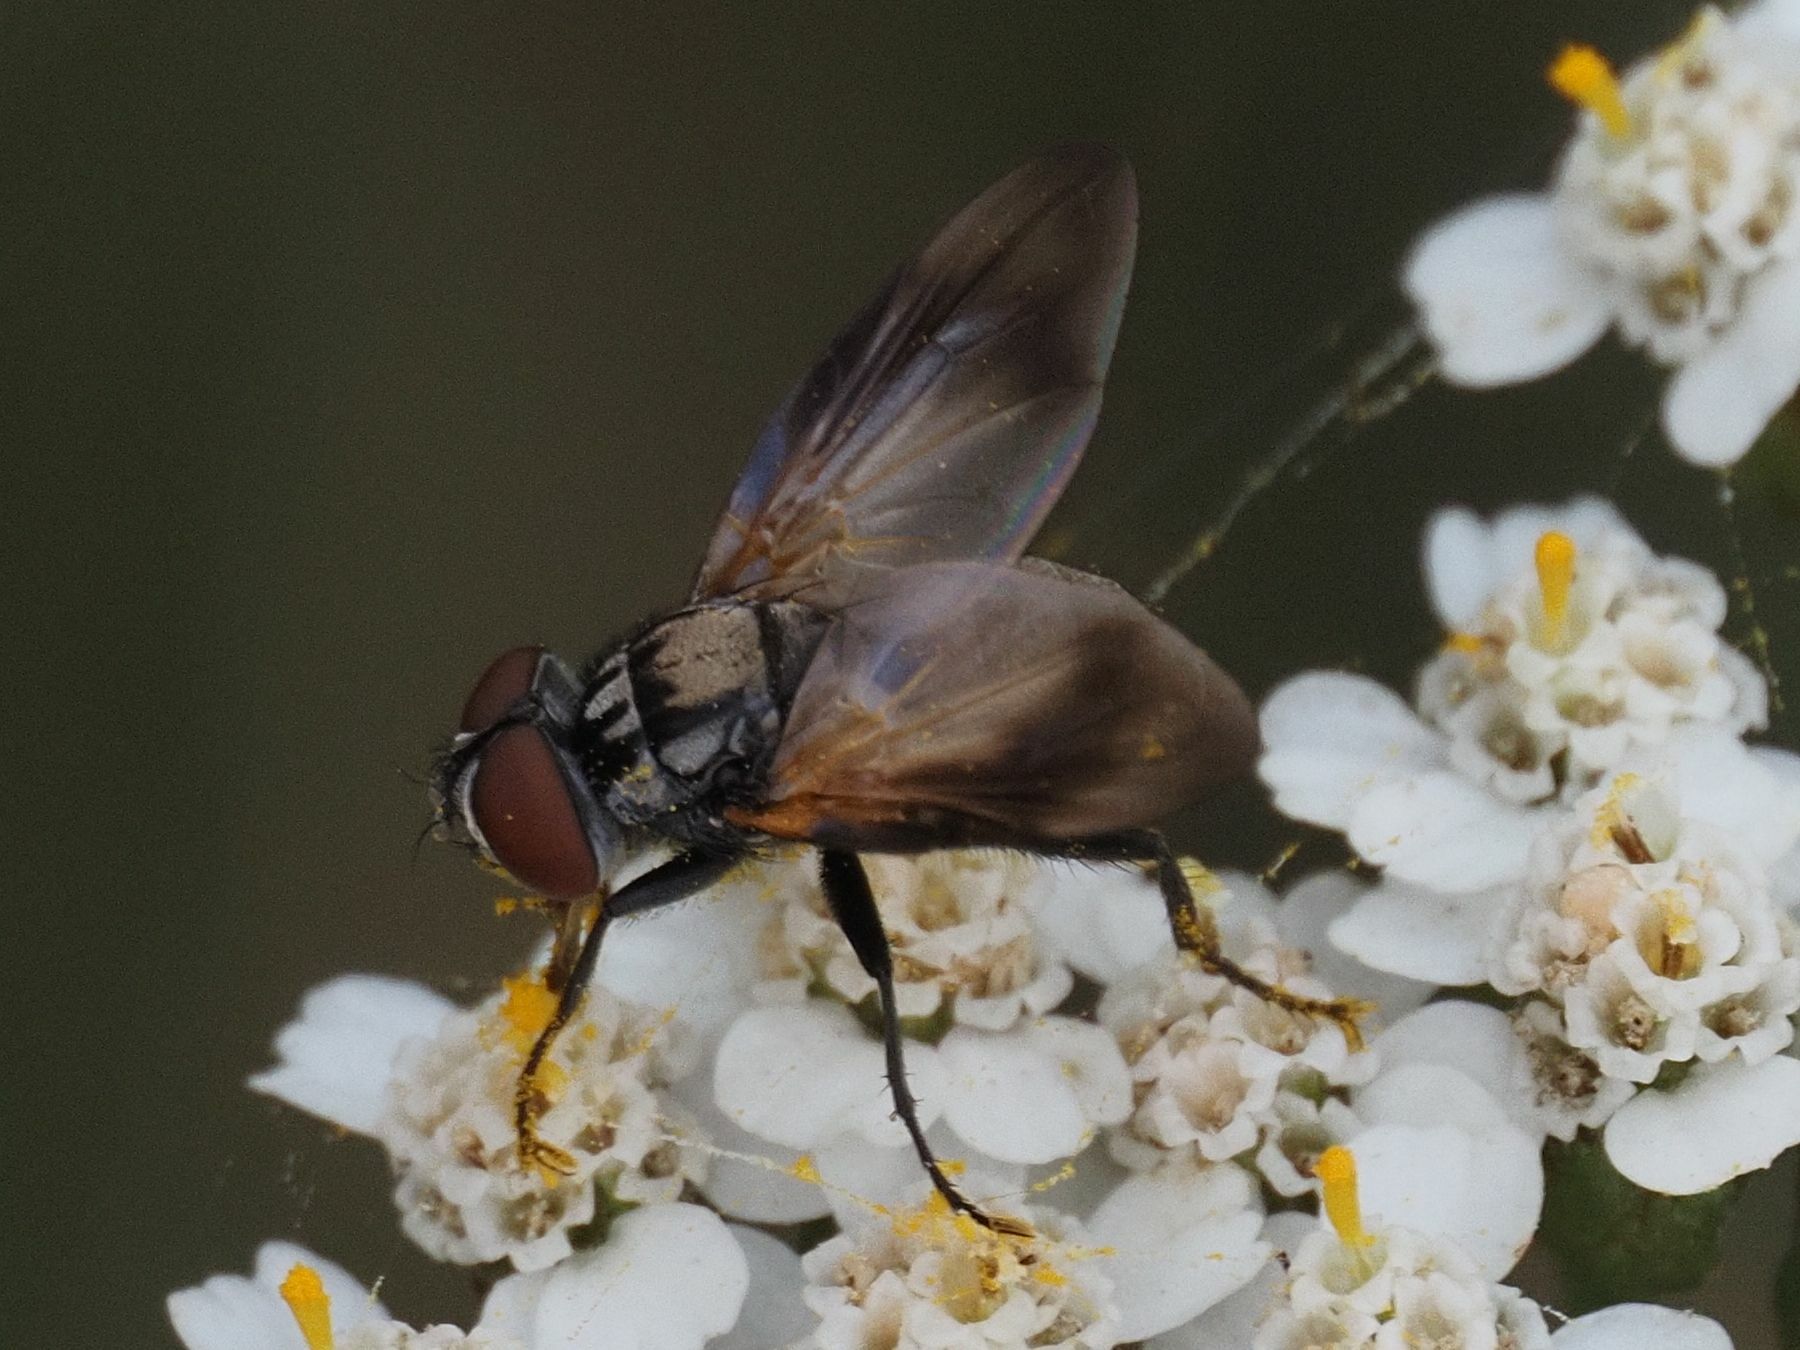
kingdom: Animalia
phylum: Arthropoda
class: Insecta
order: Diptera
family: Tachinidae
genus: Phasia
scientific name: Phasia obesa
